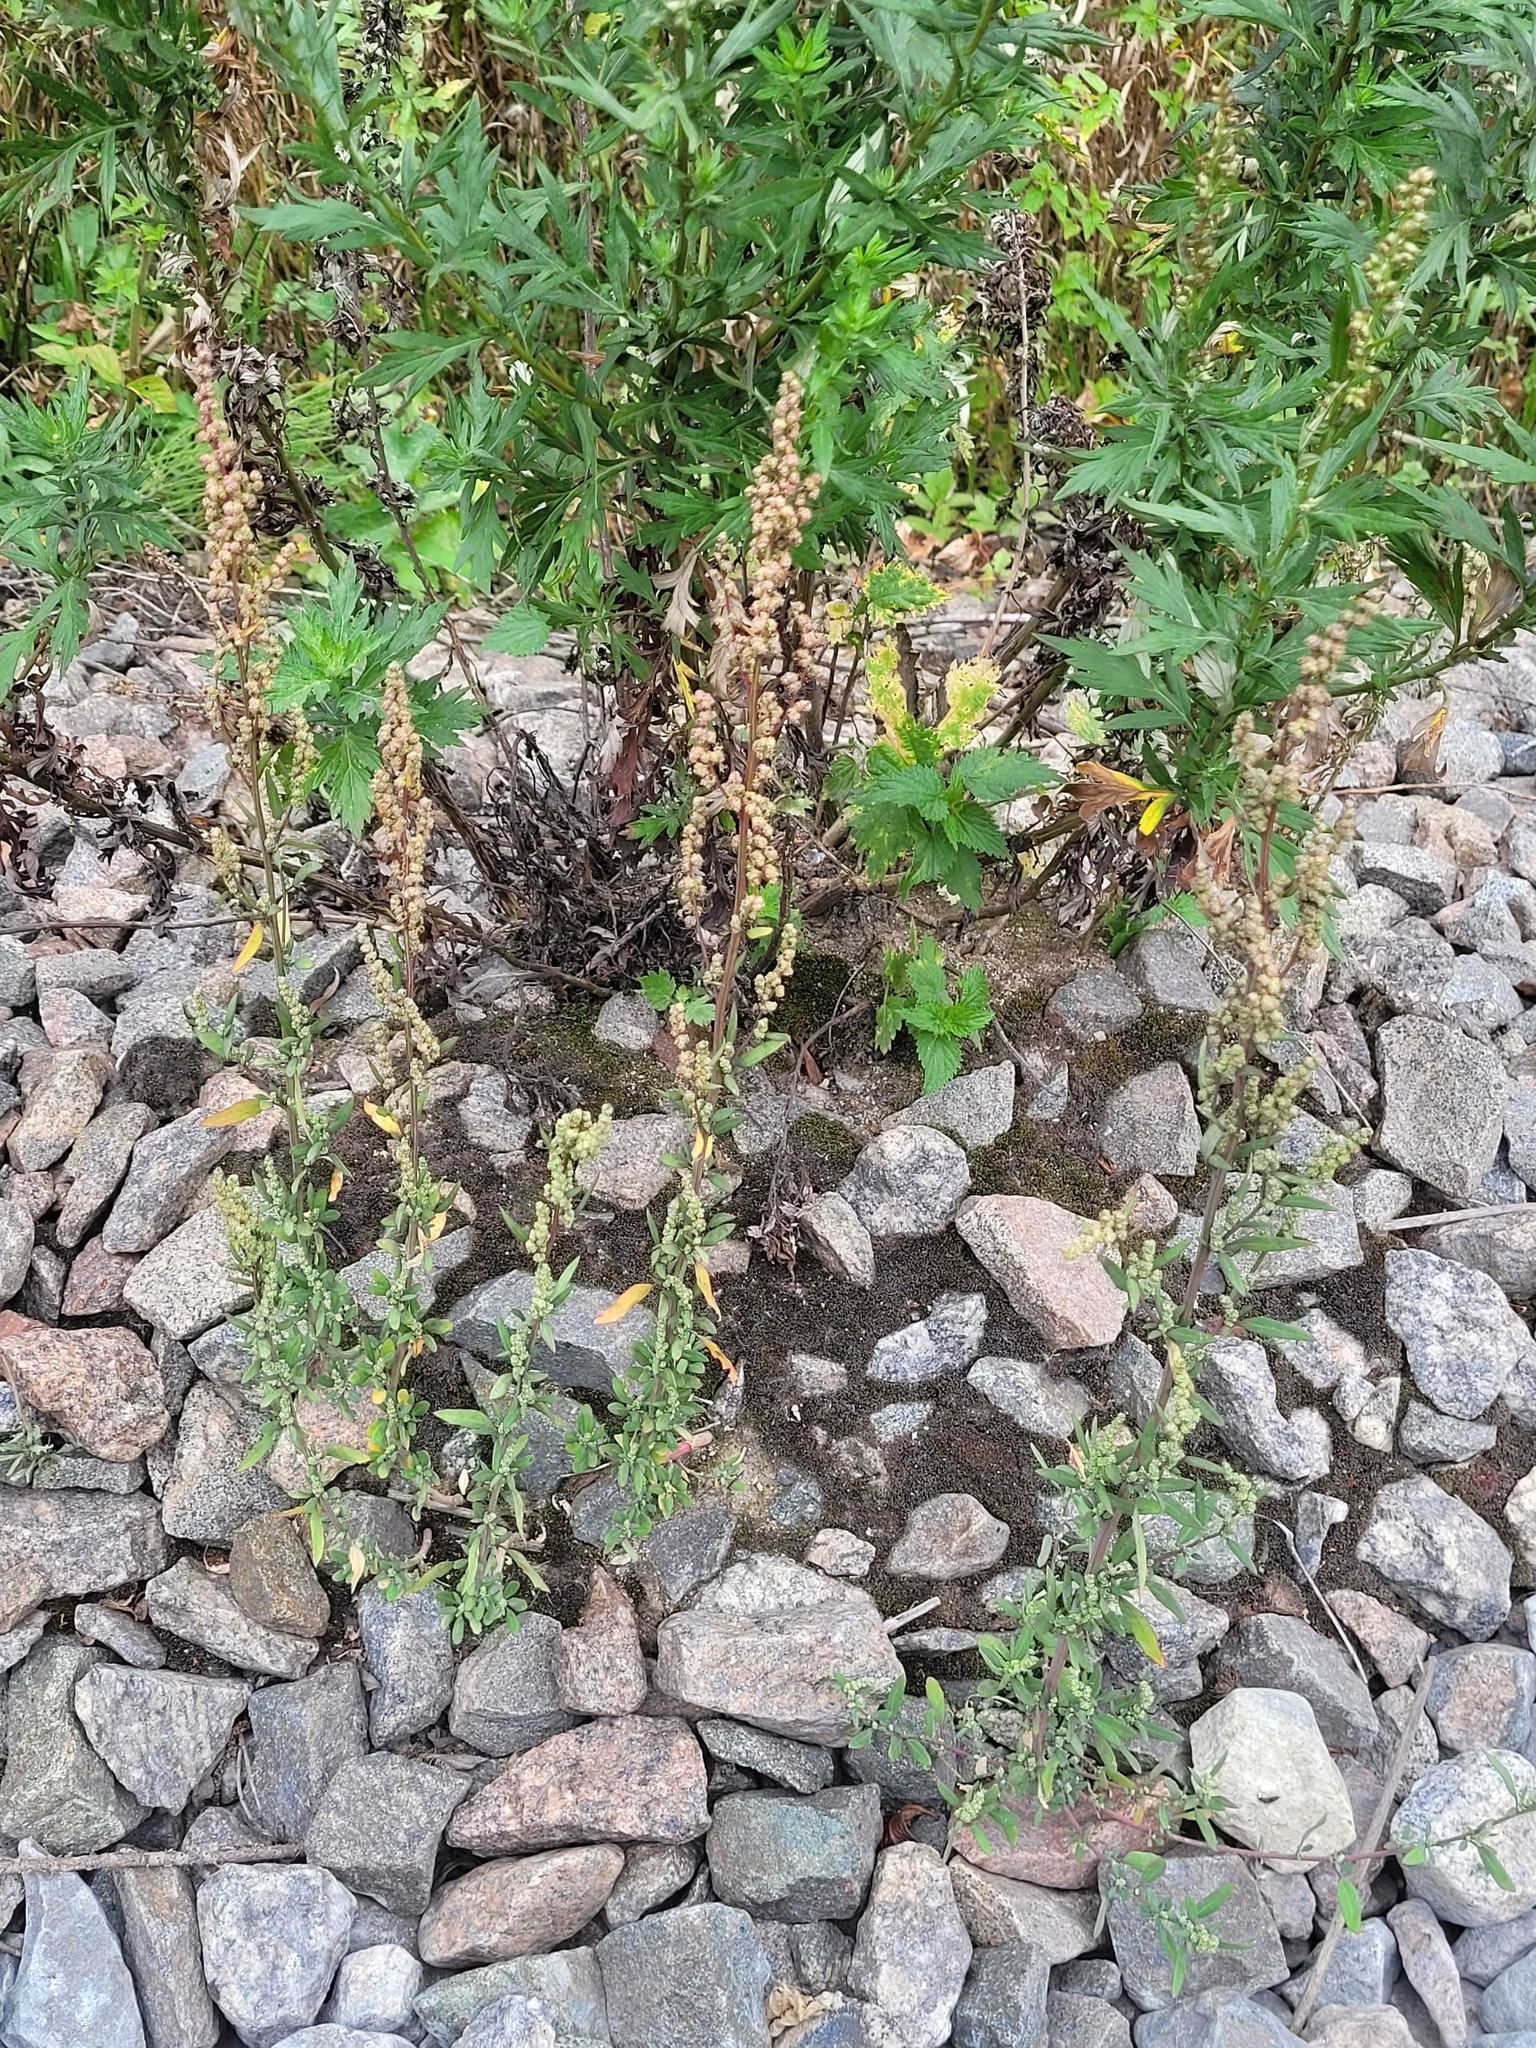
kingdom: Plantae
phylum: Tracheophyta
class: Magnoliopsida
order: Caryophyllales
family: Amaranthaceae
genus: Chenopodium
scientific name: Chenopodium betaceum
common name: Striped goosefoot
